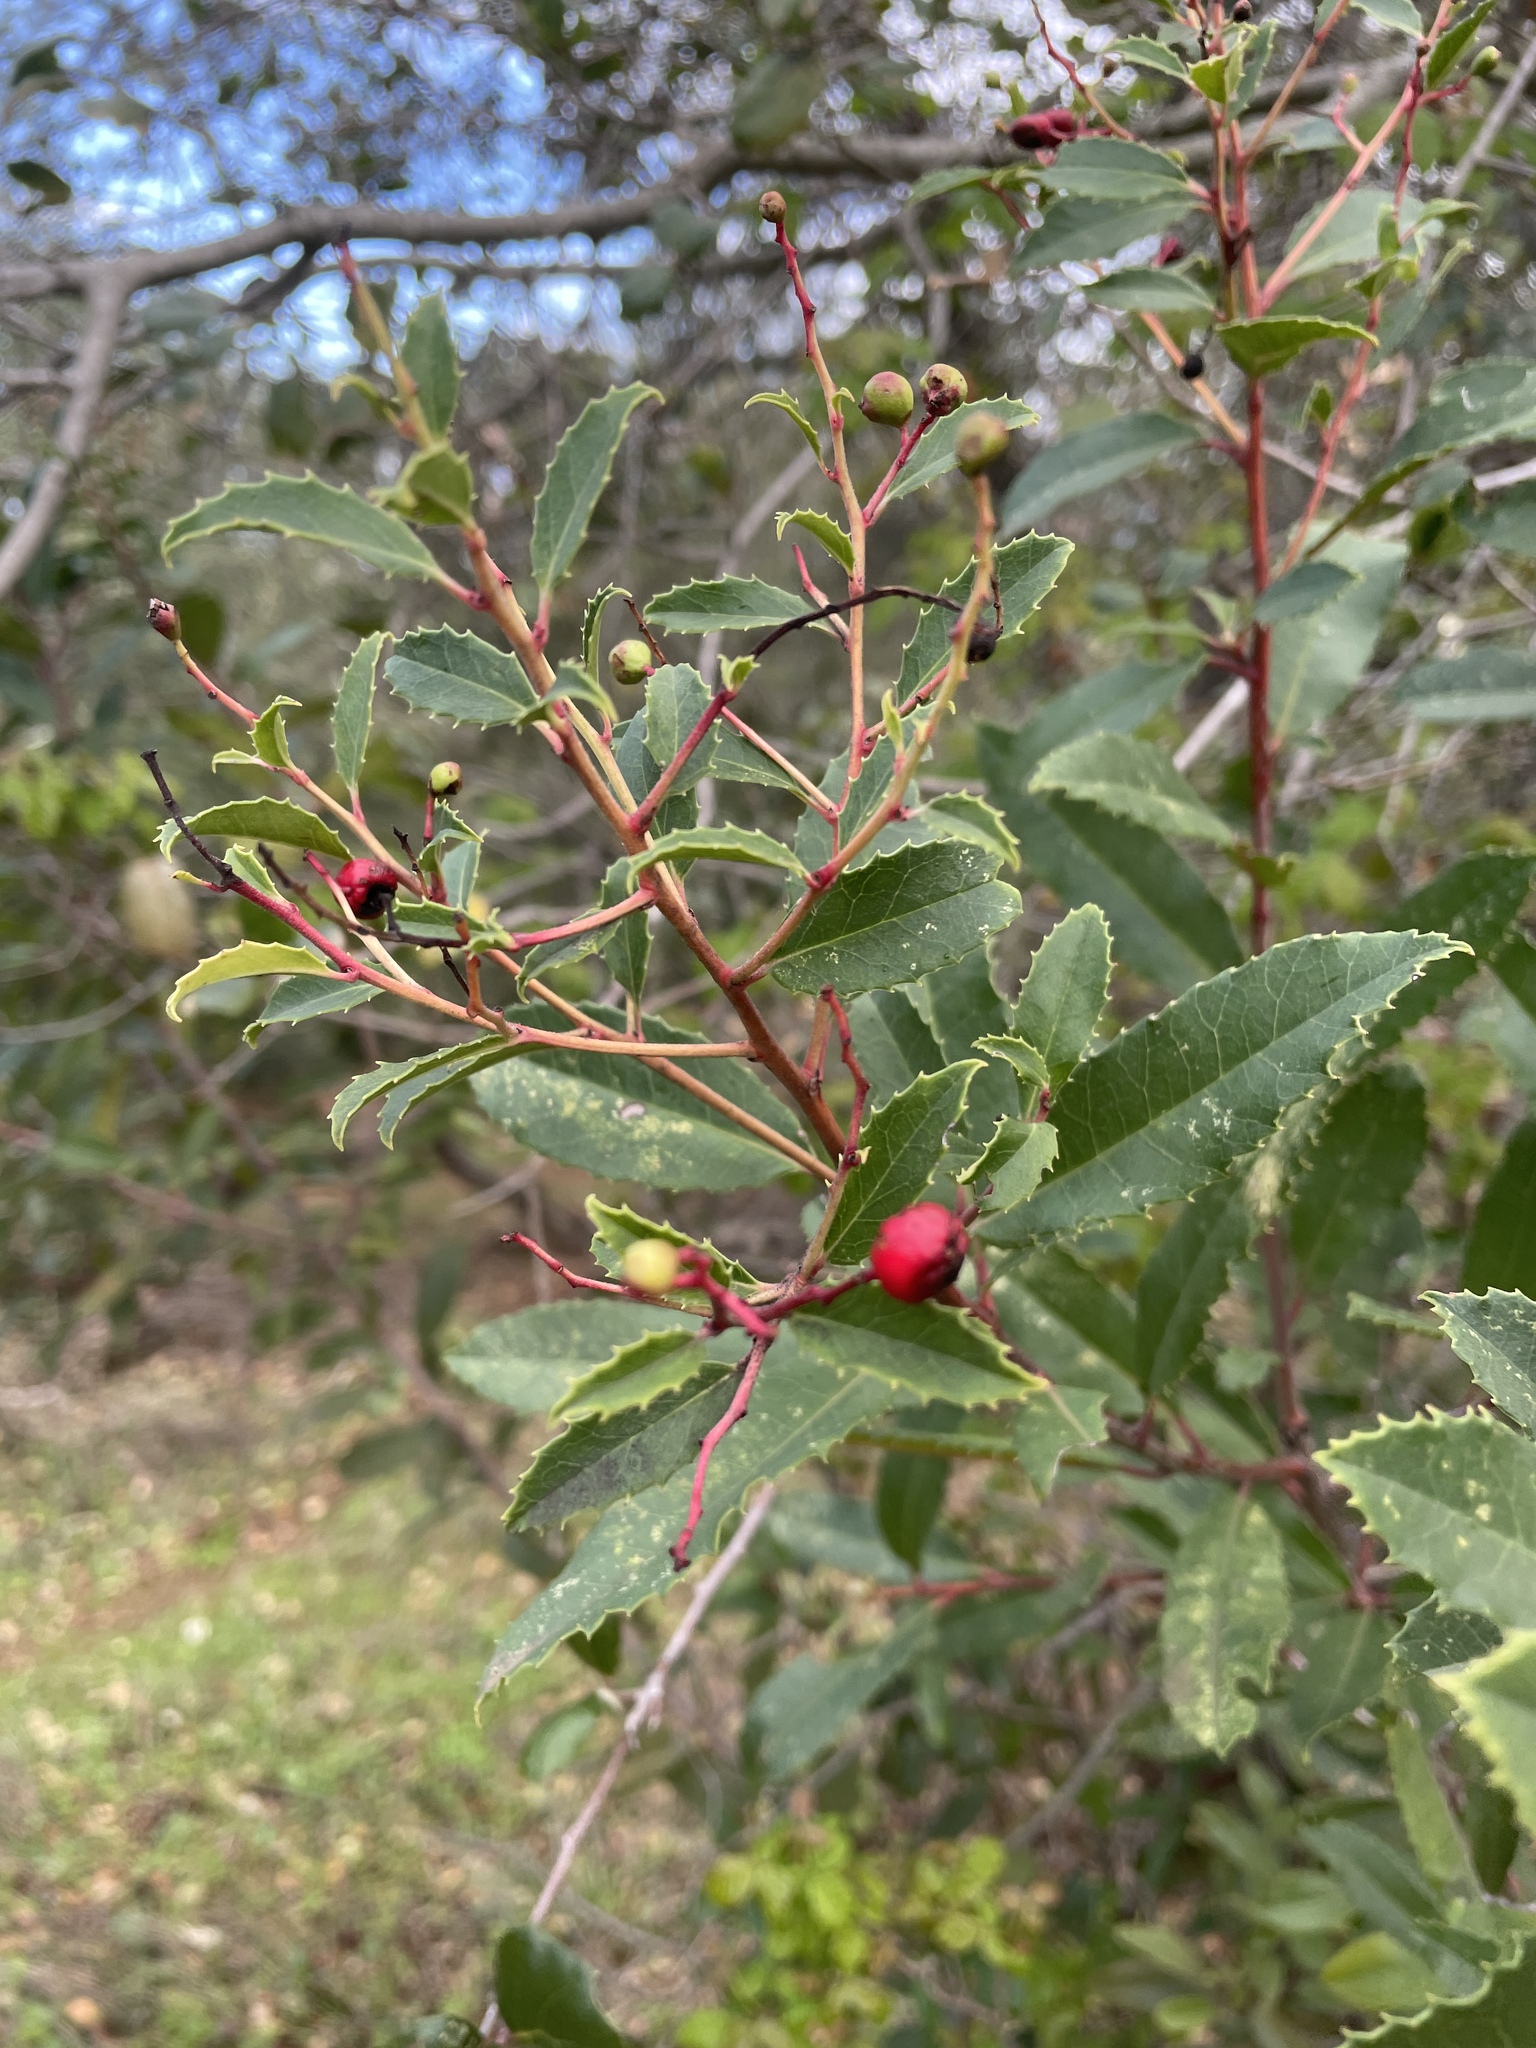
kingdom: Plantae
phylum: Tracheophyta
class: Magnoliopsida
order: Rosales
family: Rosaceae
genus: Heteromeles
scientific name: Heteromeles arbutifolia
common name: California-holly
